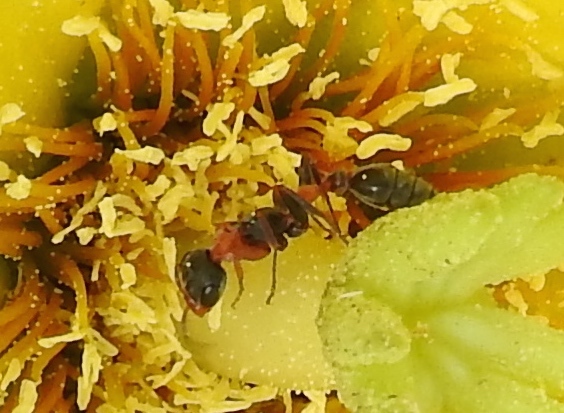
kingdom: Animalia
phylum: Arthropoda
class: Insecta
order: Hymenoptera
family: Formicidae
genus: Pseudomyrmex
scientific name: Pseudomyrmex gracilis
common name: Graceful twig ant
